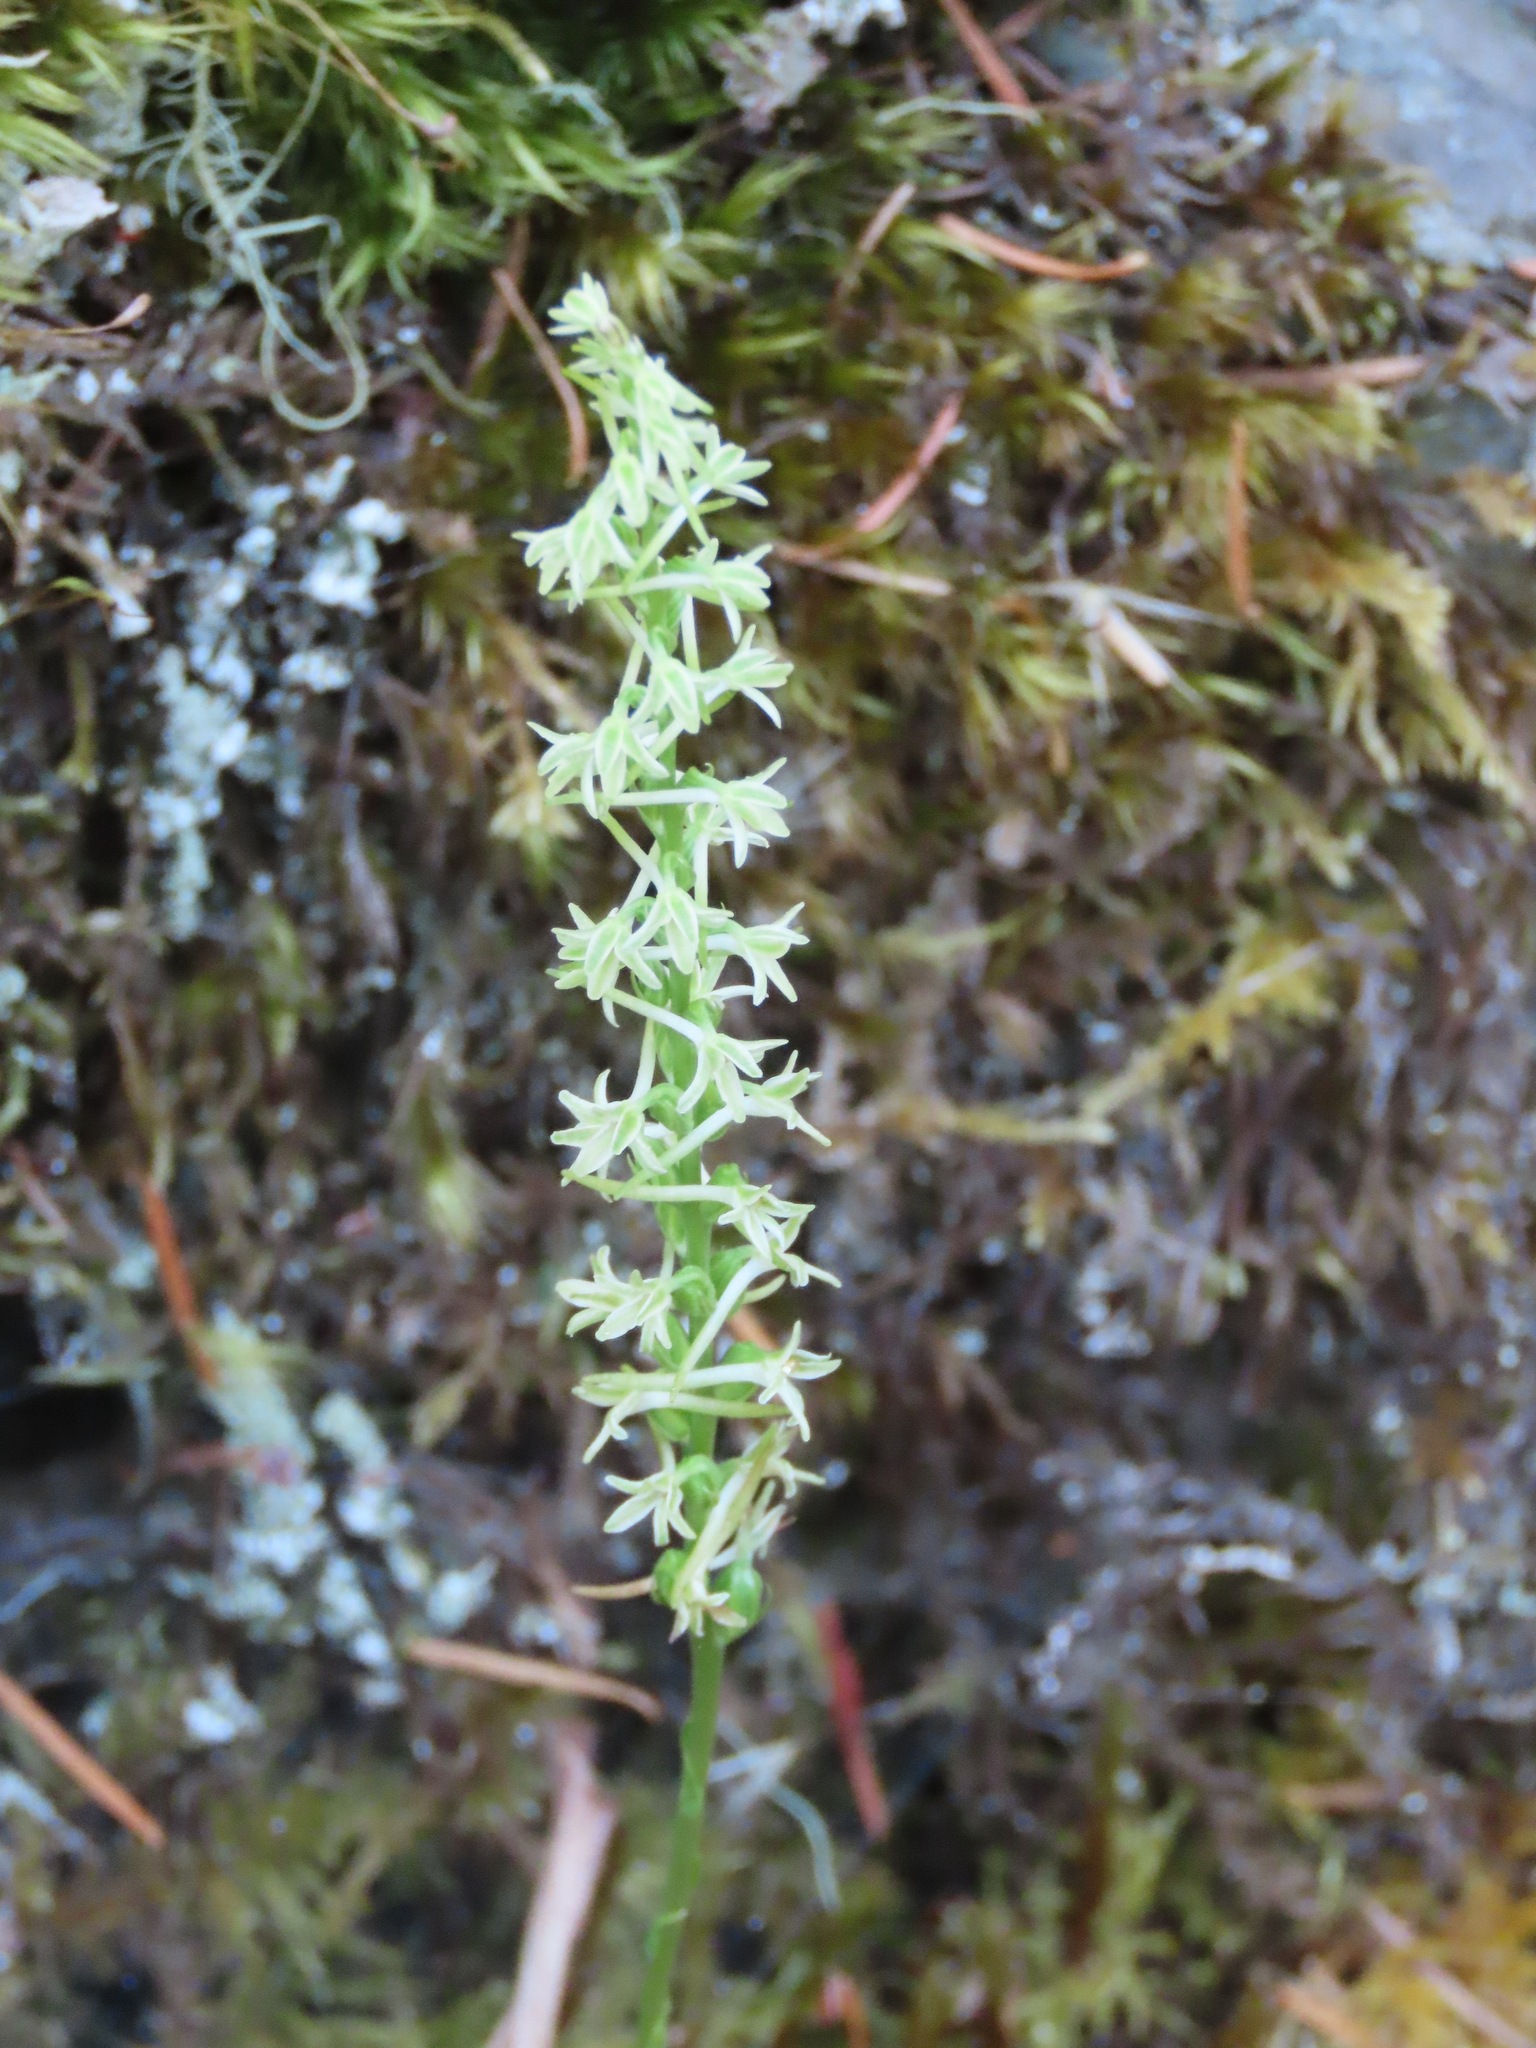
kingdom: Plantae
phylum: Tracheophyta
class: Liliopsida
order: Asparagales
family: Orchidaceae
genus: Platanthera
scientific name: Platanthera transversa
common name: Royal rein orchid
